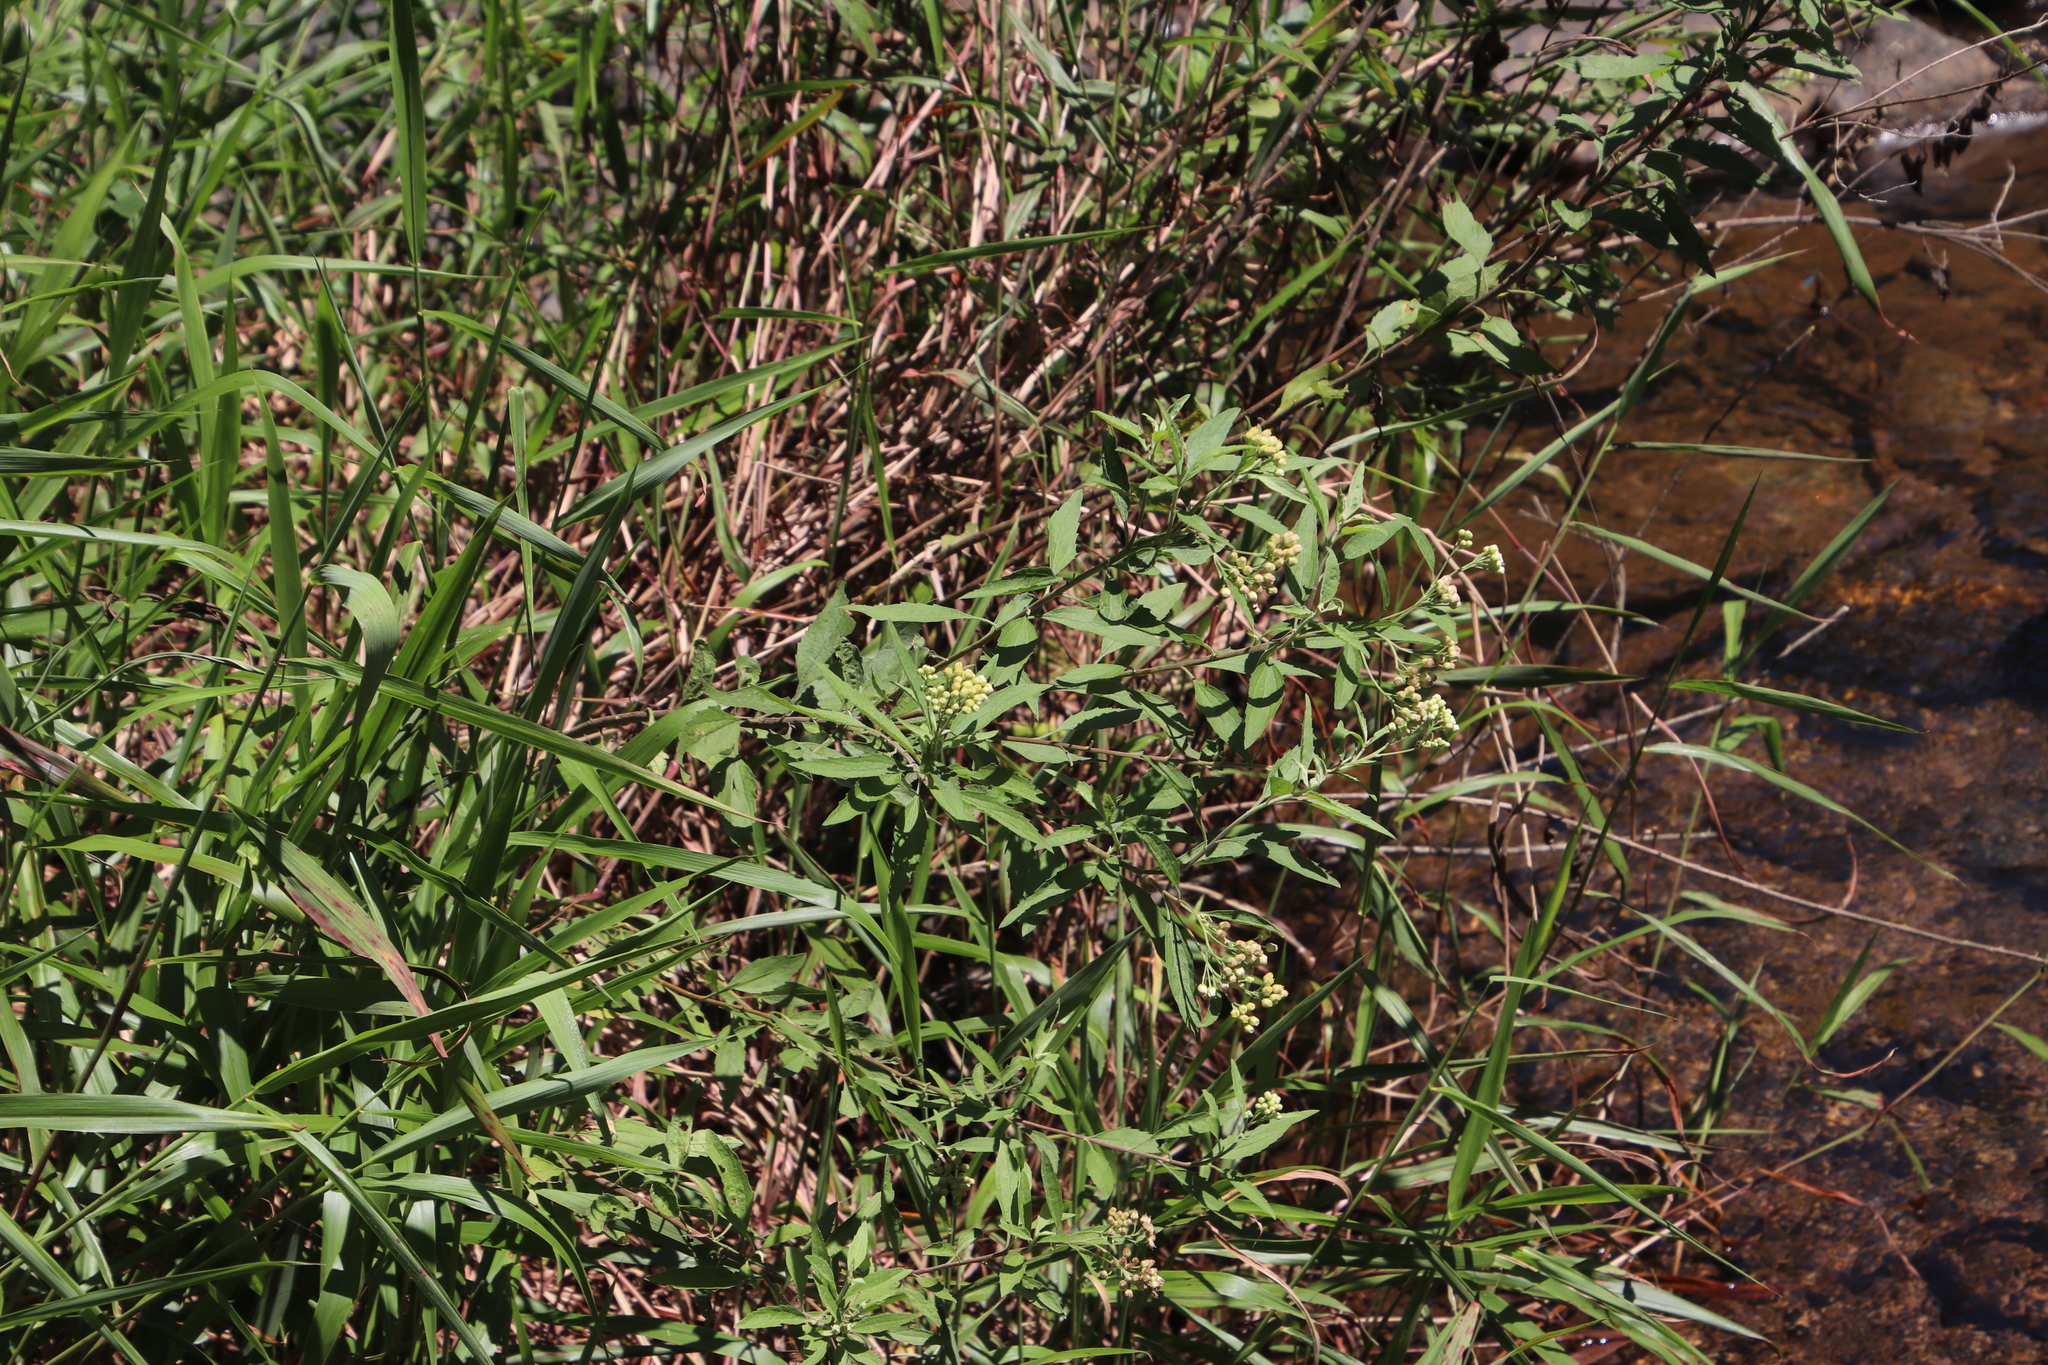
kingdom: Plantae
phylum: Tracheophyta
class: Magnoliopsida
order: Asterales
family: Asteraceae
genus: Nidorella
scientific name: Nidorella ivifolia
